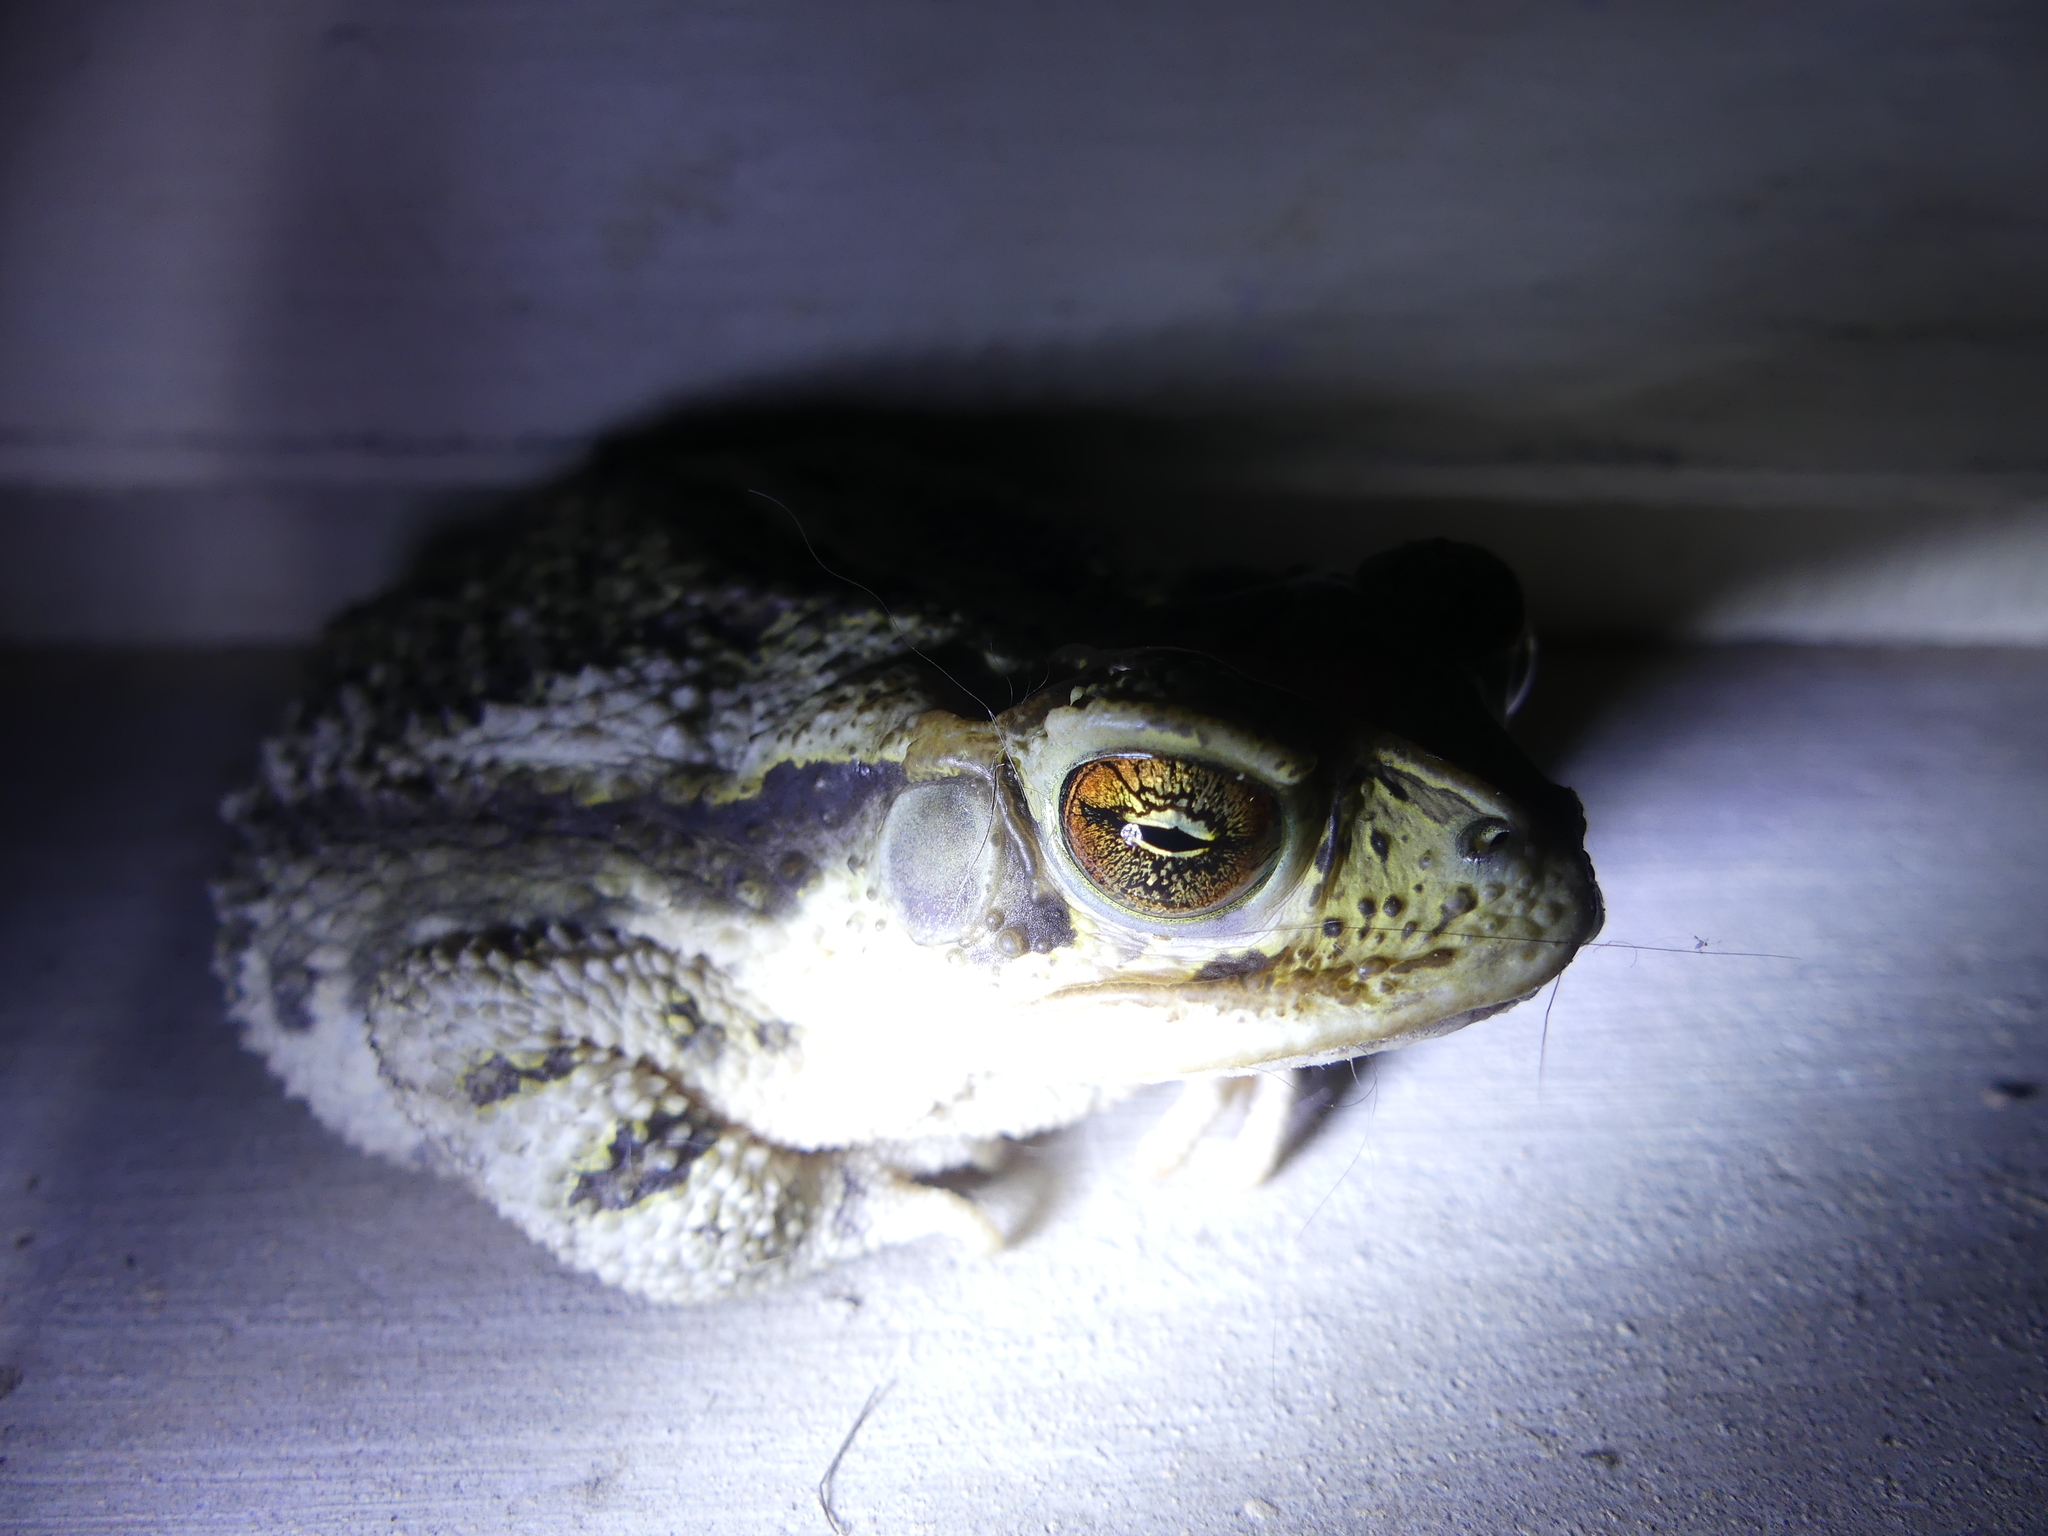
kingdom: Animalia
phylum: Chordata
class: Amphibia
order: Anura
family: Bufonidae
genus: Incilius
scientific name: Incilius nebulifer
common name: Gulf coast toad
